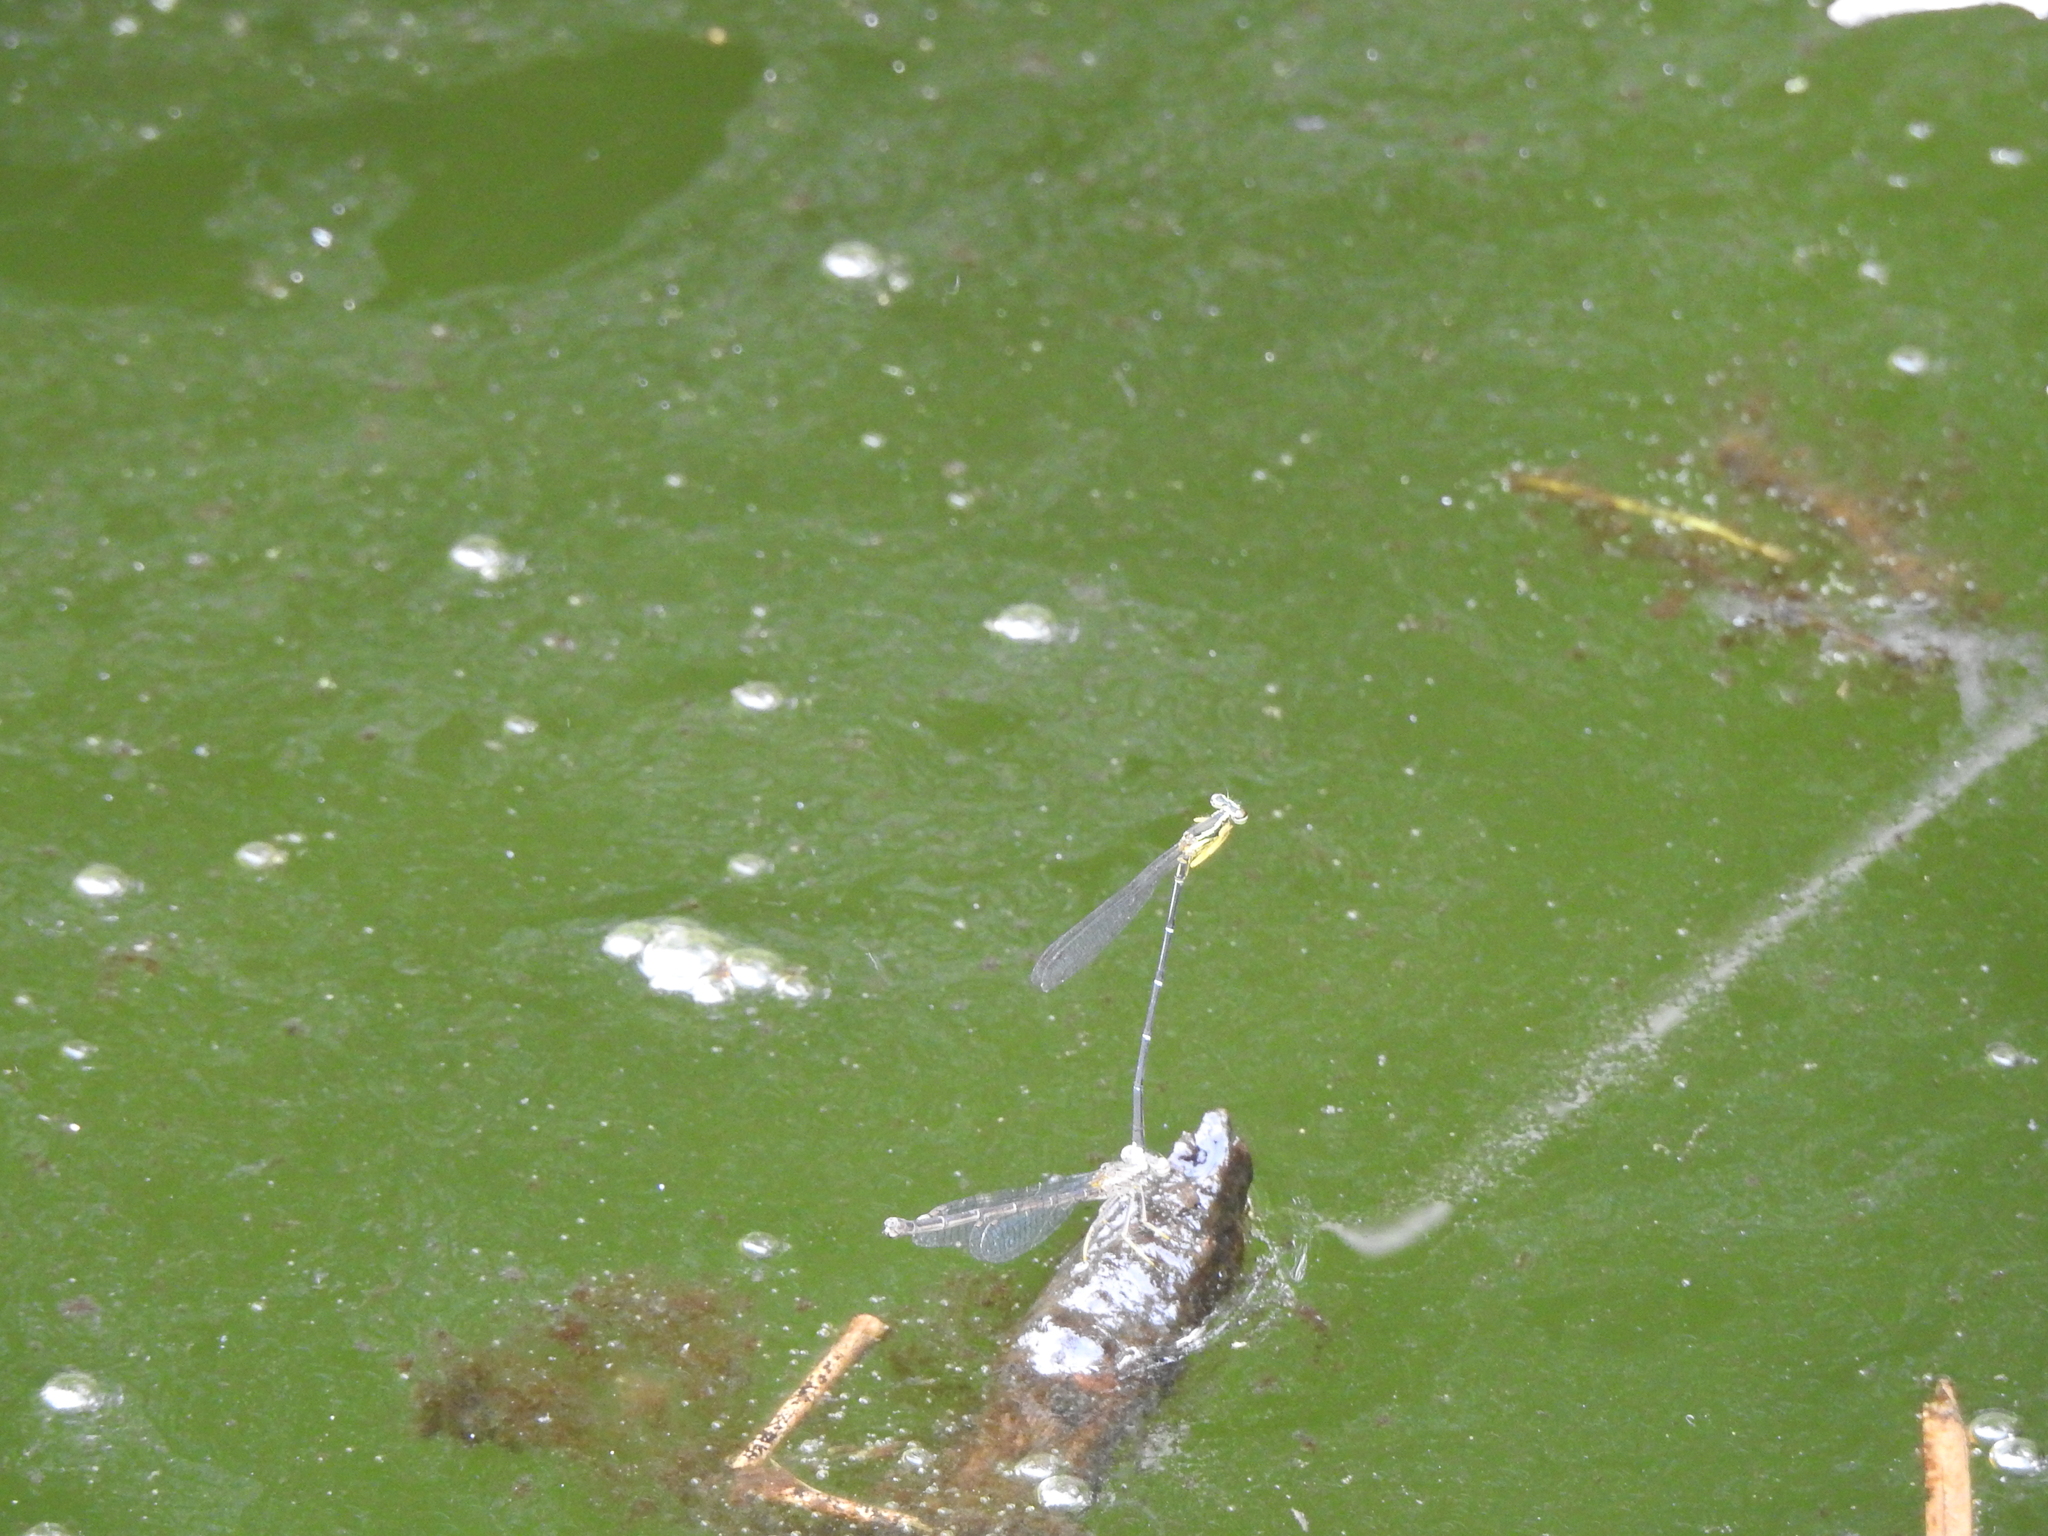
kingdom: Animalia
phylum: Arthropoda
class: Insecta
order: Odonata
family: Platycnemididae
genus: Copera
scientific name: Copera marginipes
